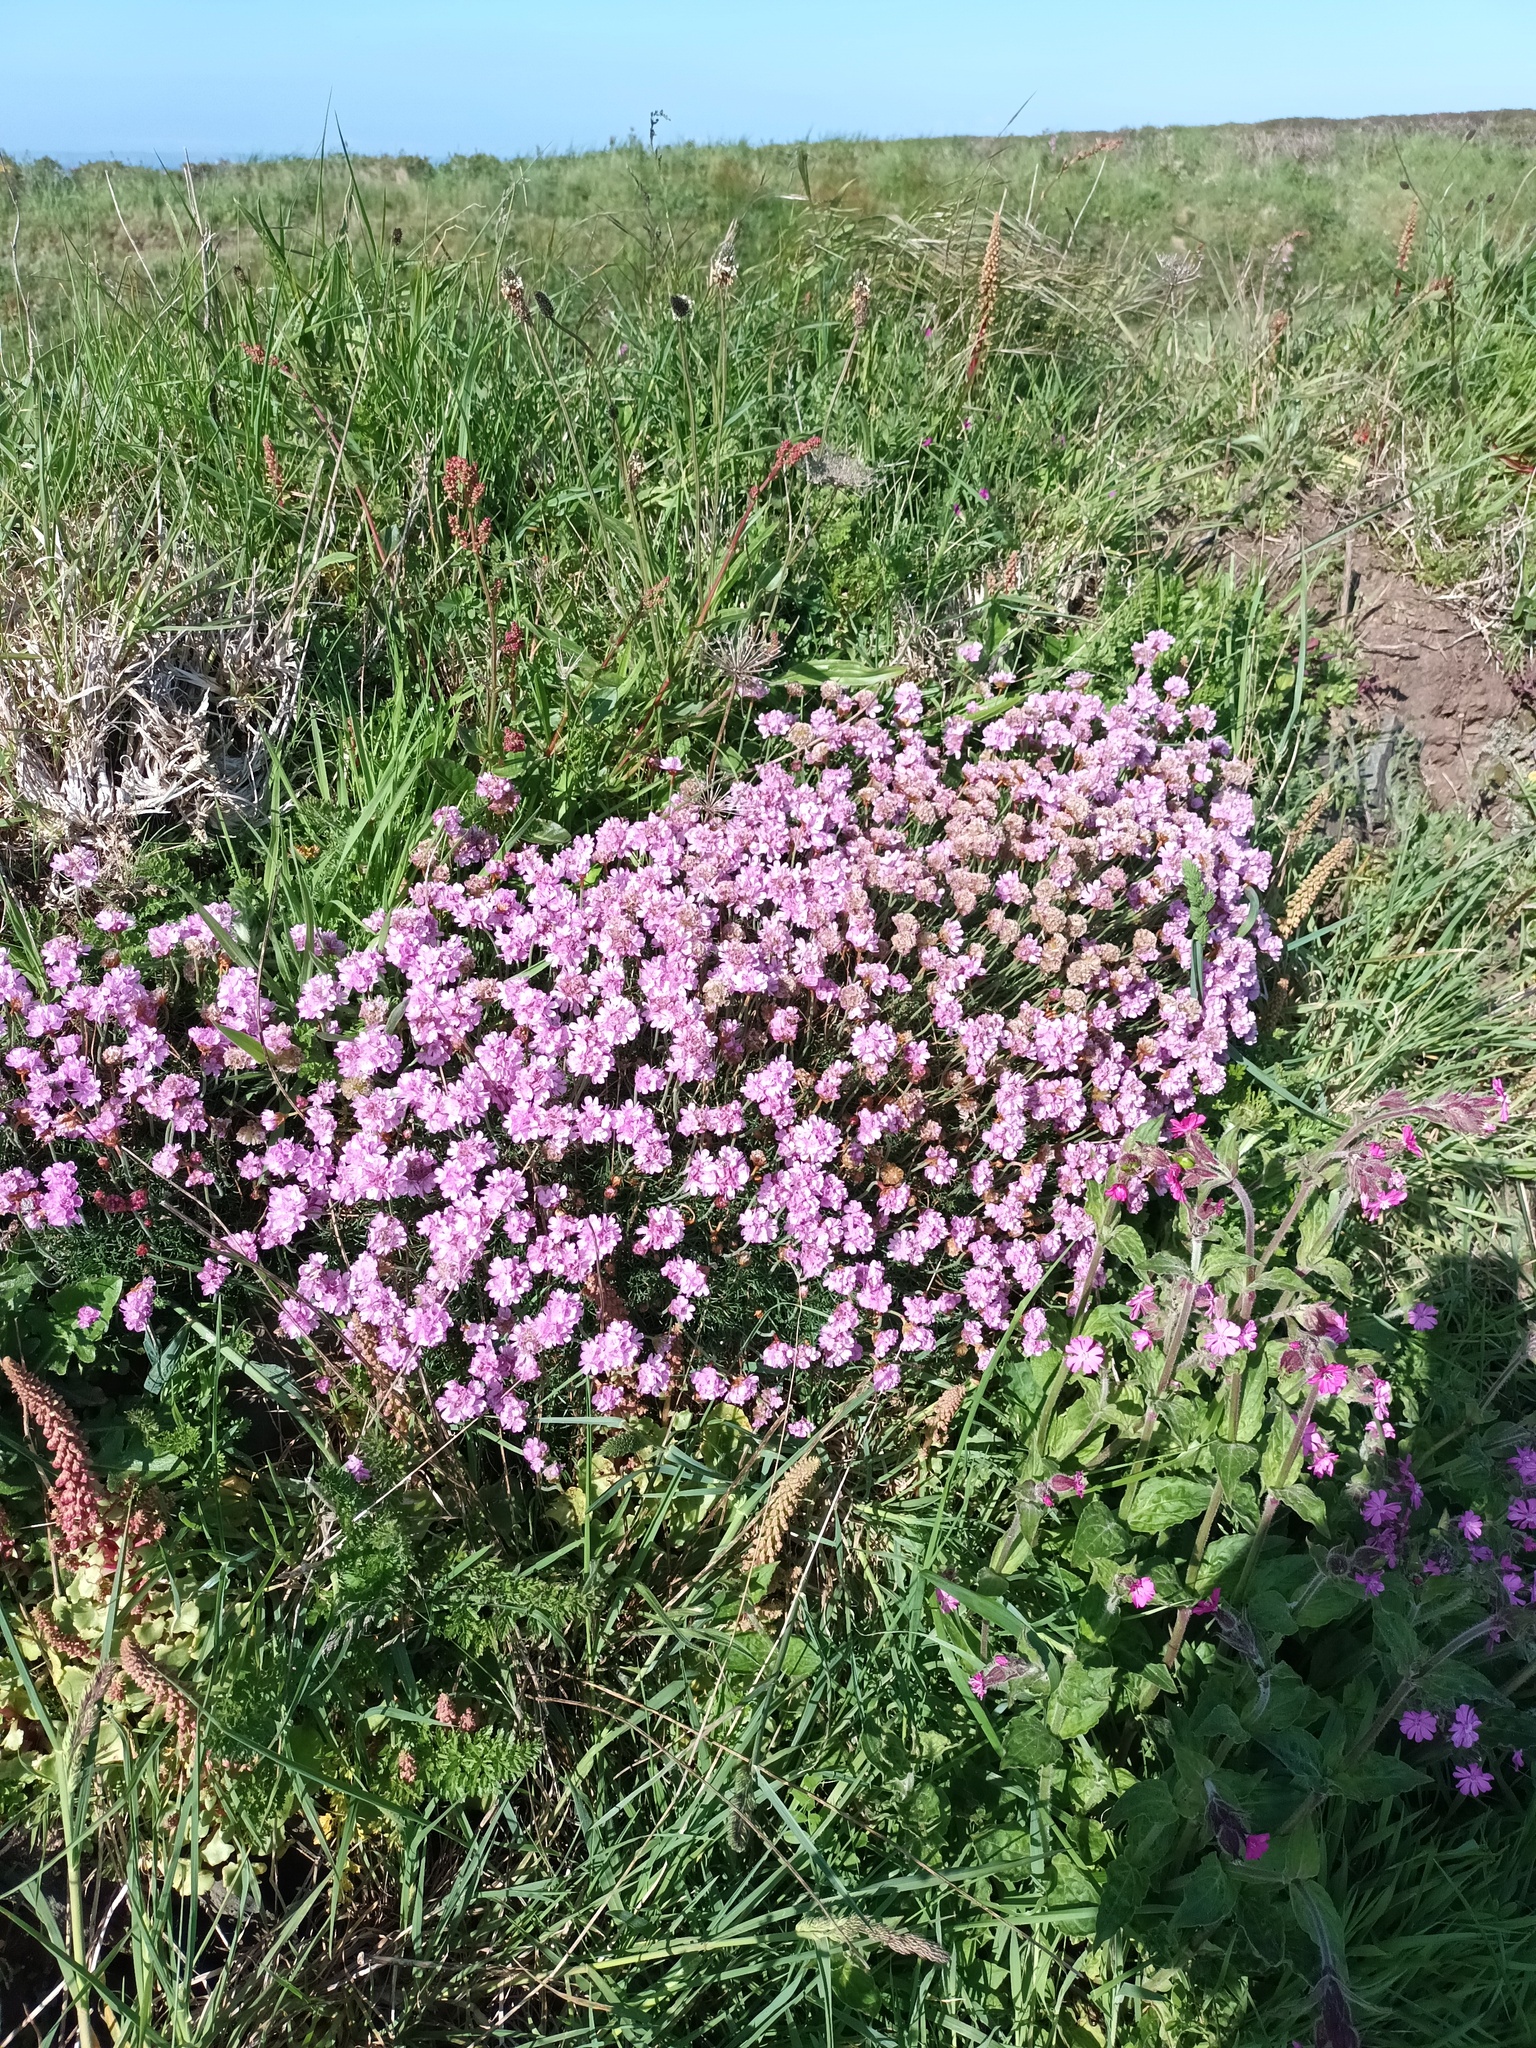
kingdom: Plantae
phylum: Tracheophyta
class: Magnoliopsida
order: Caryophyllales
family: Plumbaginaceae
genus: Armeria
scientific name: Armeria maritima
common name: Thrift
